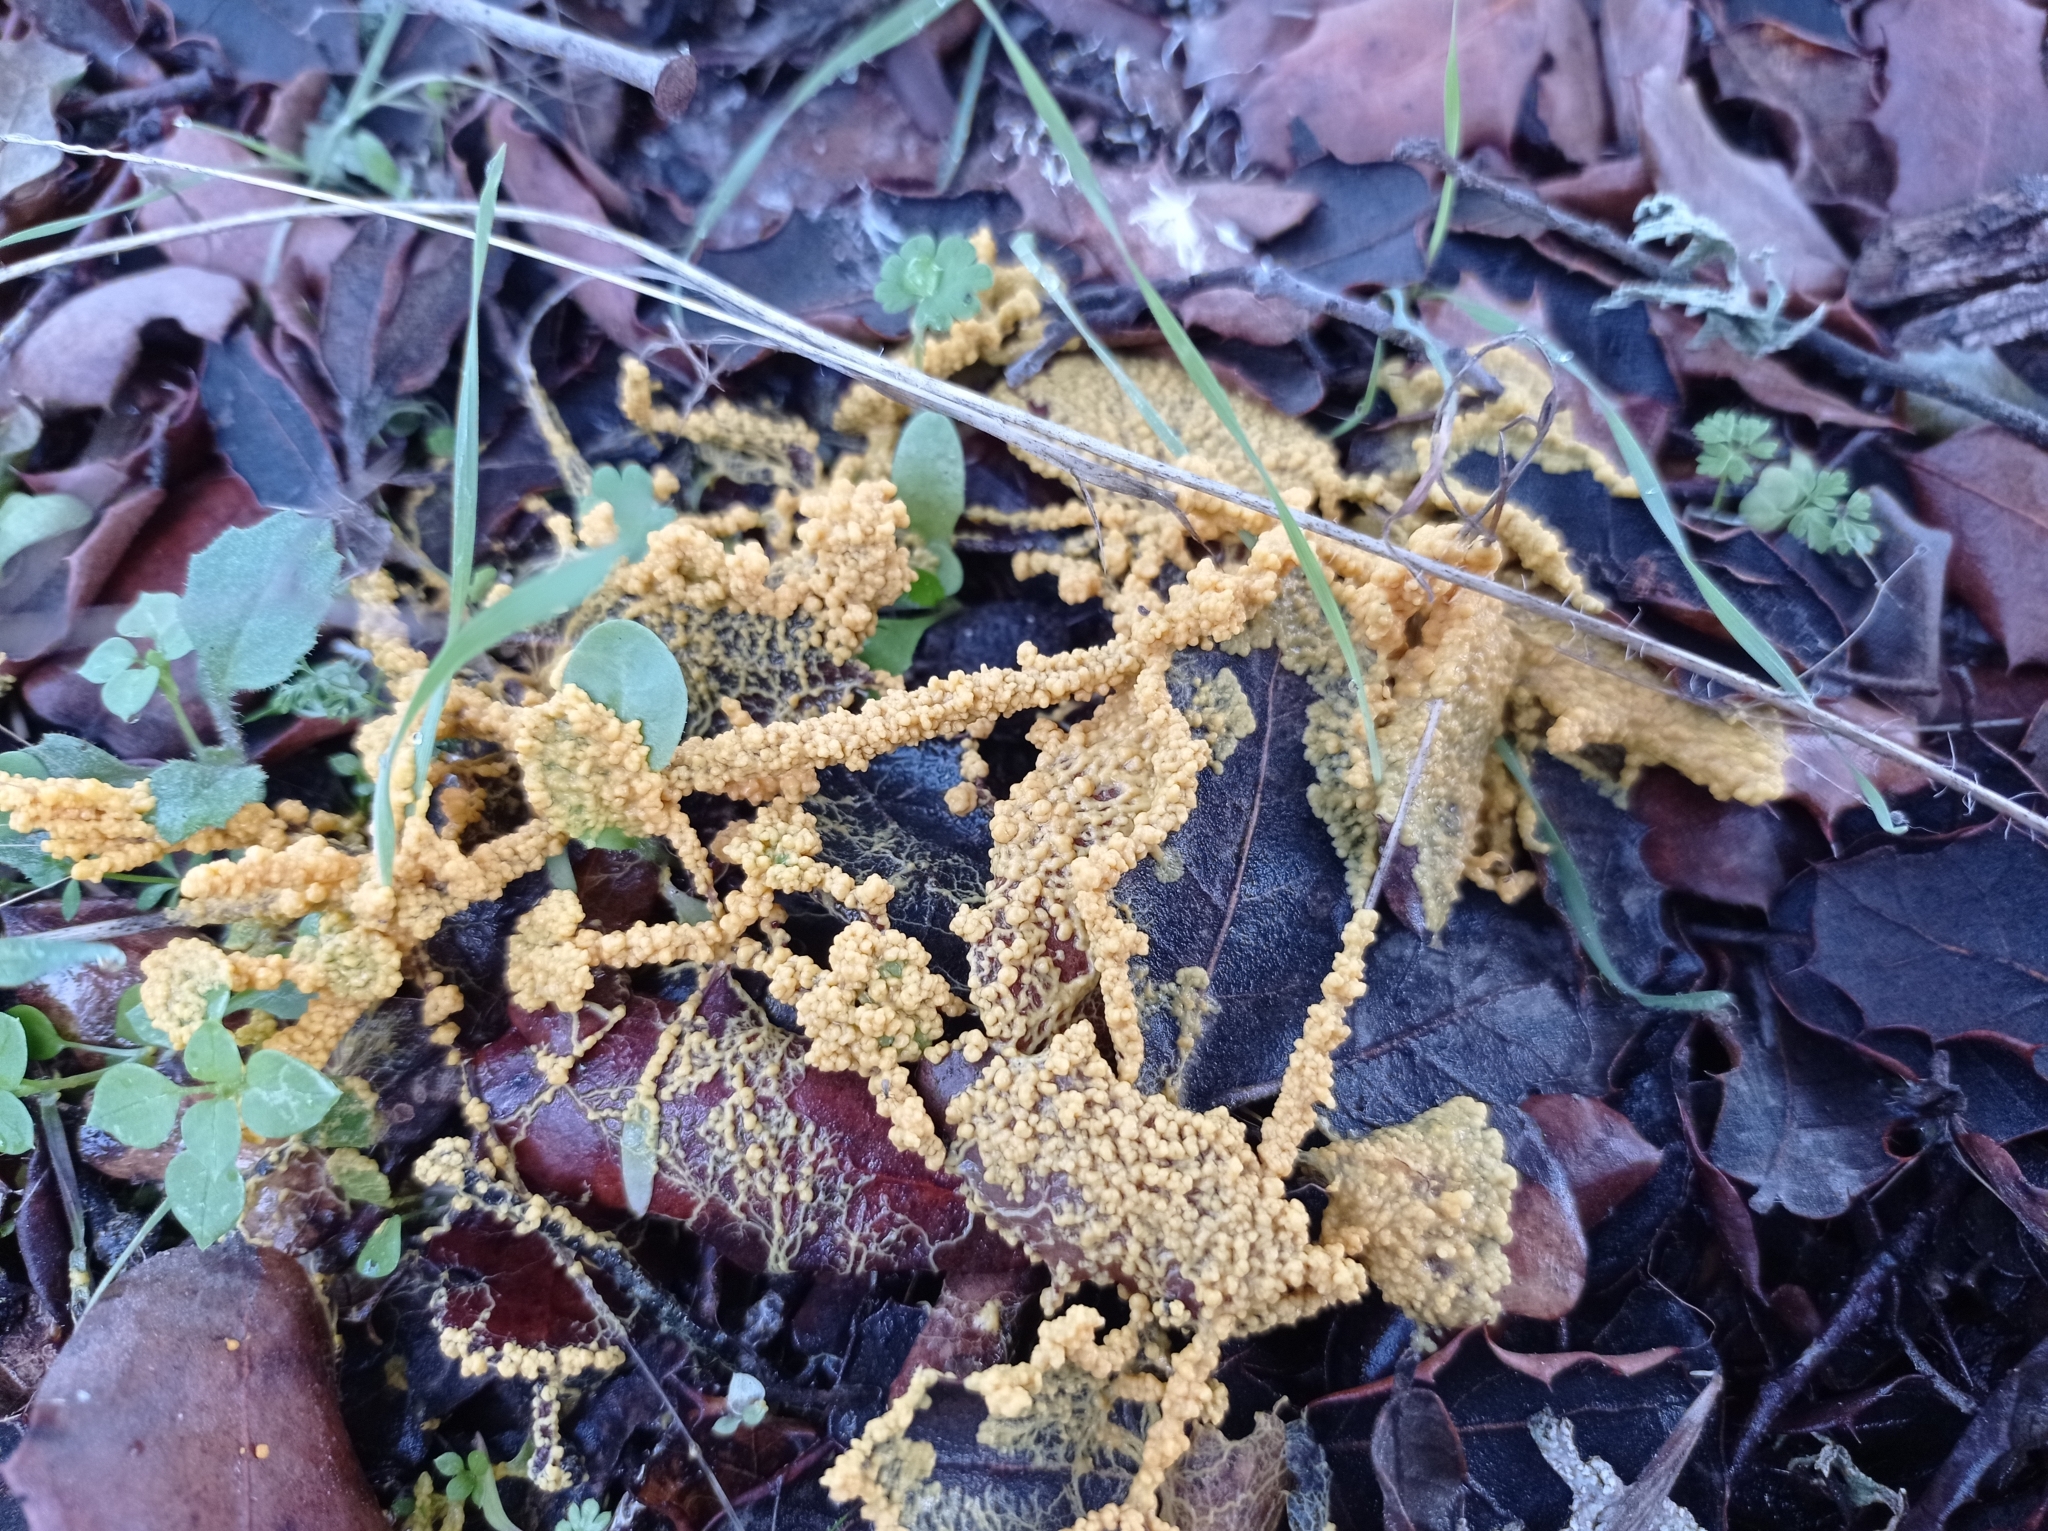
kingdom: Protozoa
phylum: Mycetozoa
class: Myxomycetes
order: Physarales
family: Physaraceae
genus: Fuligo
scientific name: Fuligo septica
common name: Dog vomit slime mold
